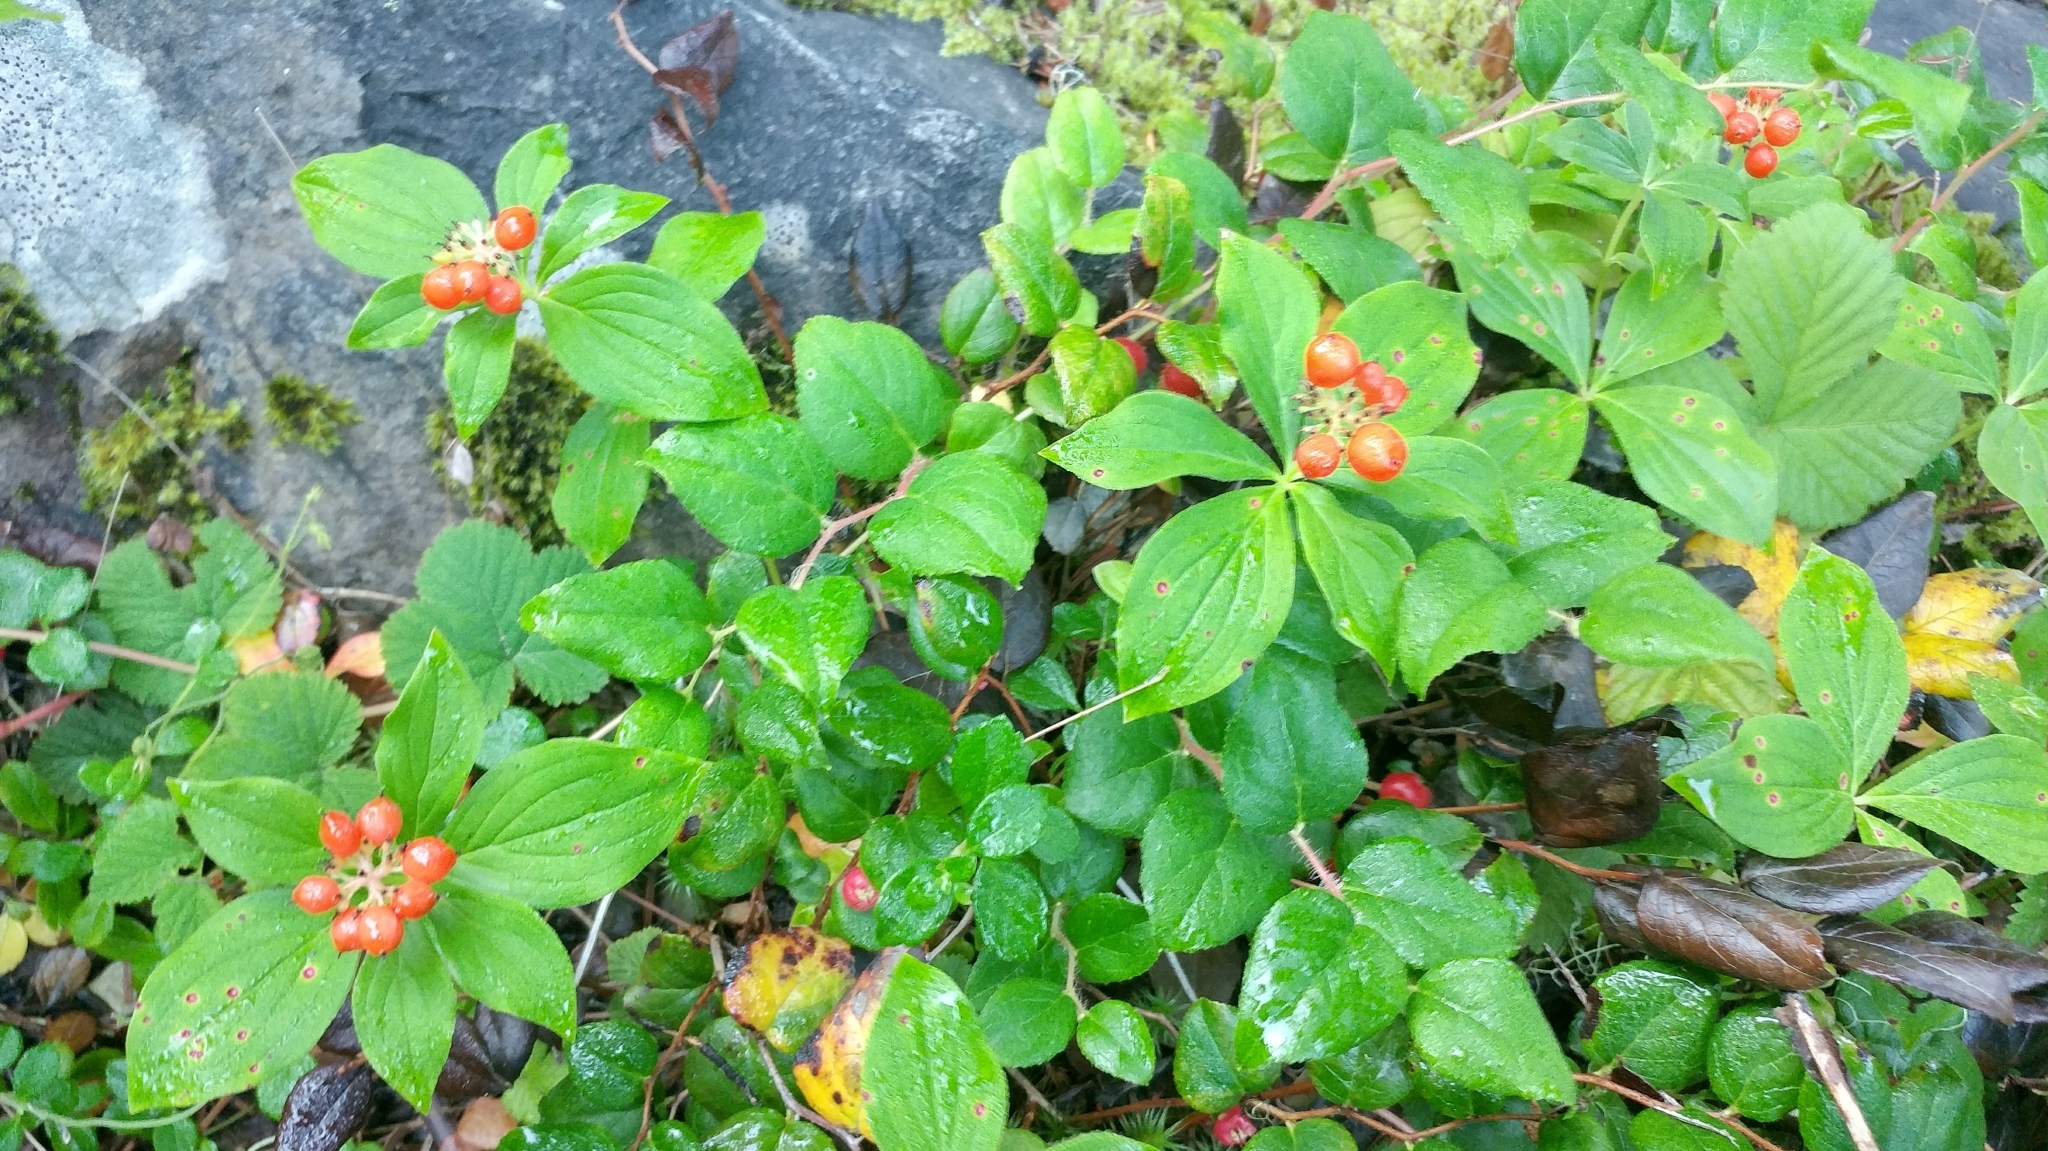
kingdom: Plantae
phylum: Tracheophyta
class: Magnoliopsida
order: Cornales
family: Cornaceae
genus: Cornus
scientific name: Cornus unalaschkensis
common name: Alaska bunchberry
